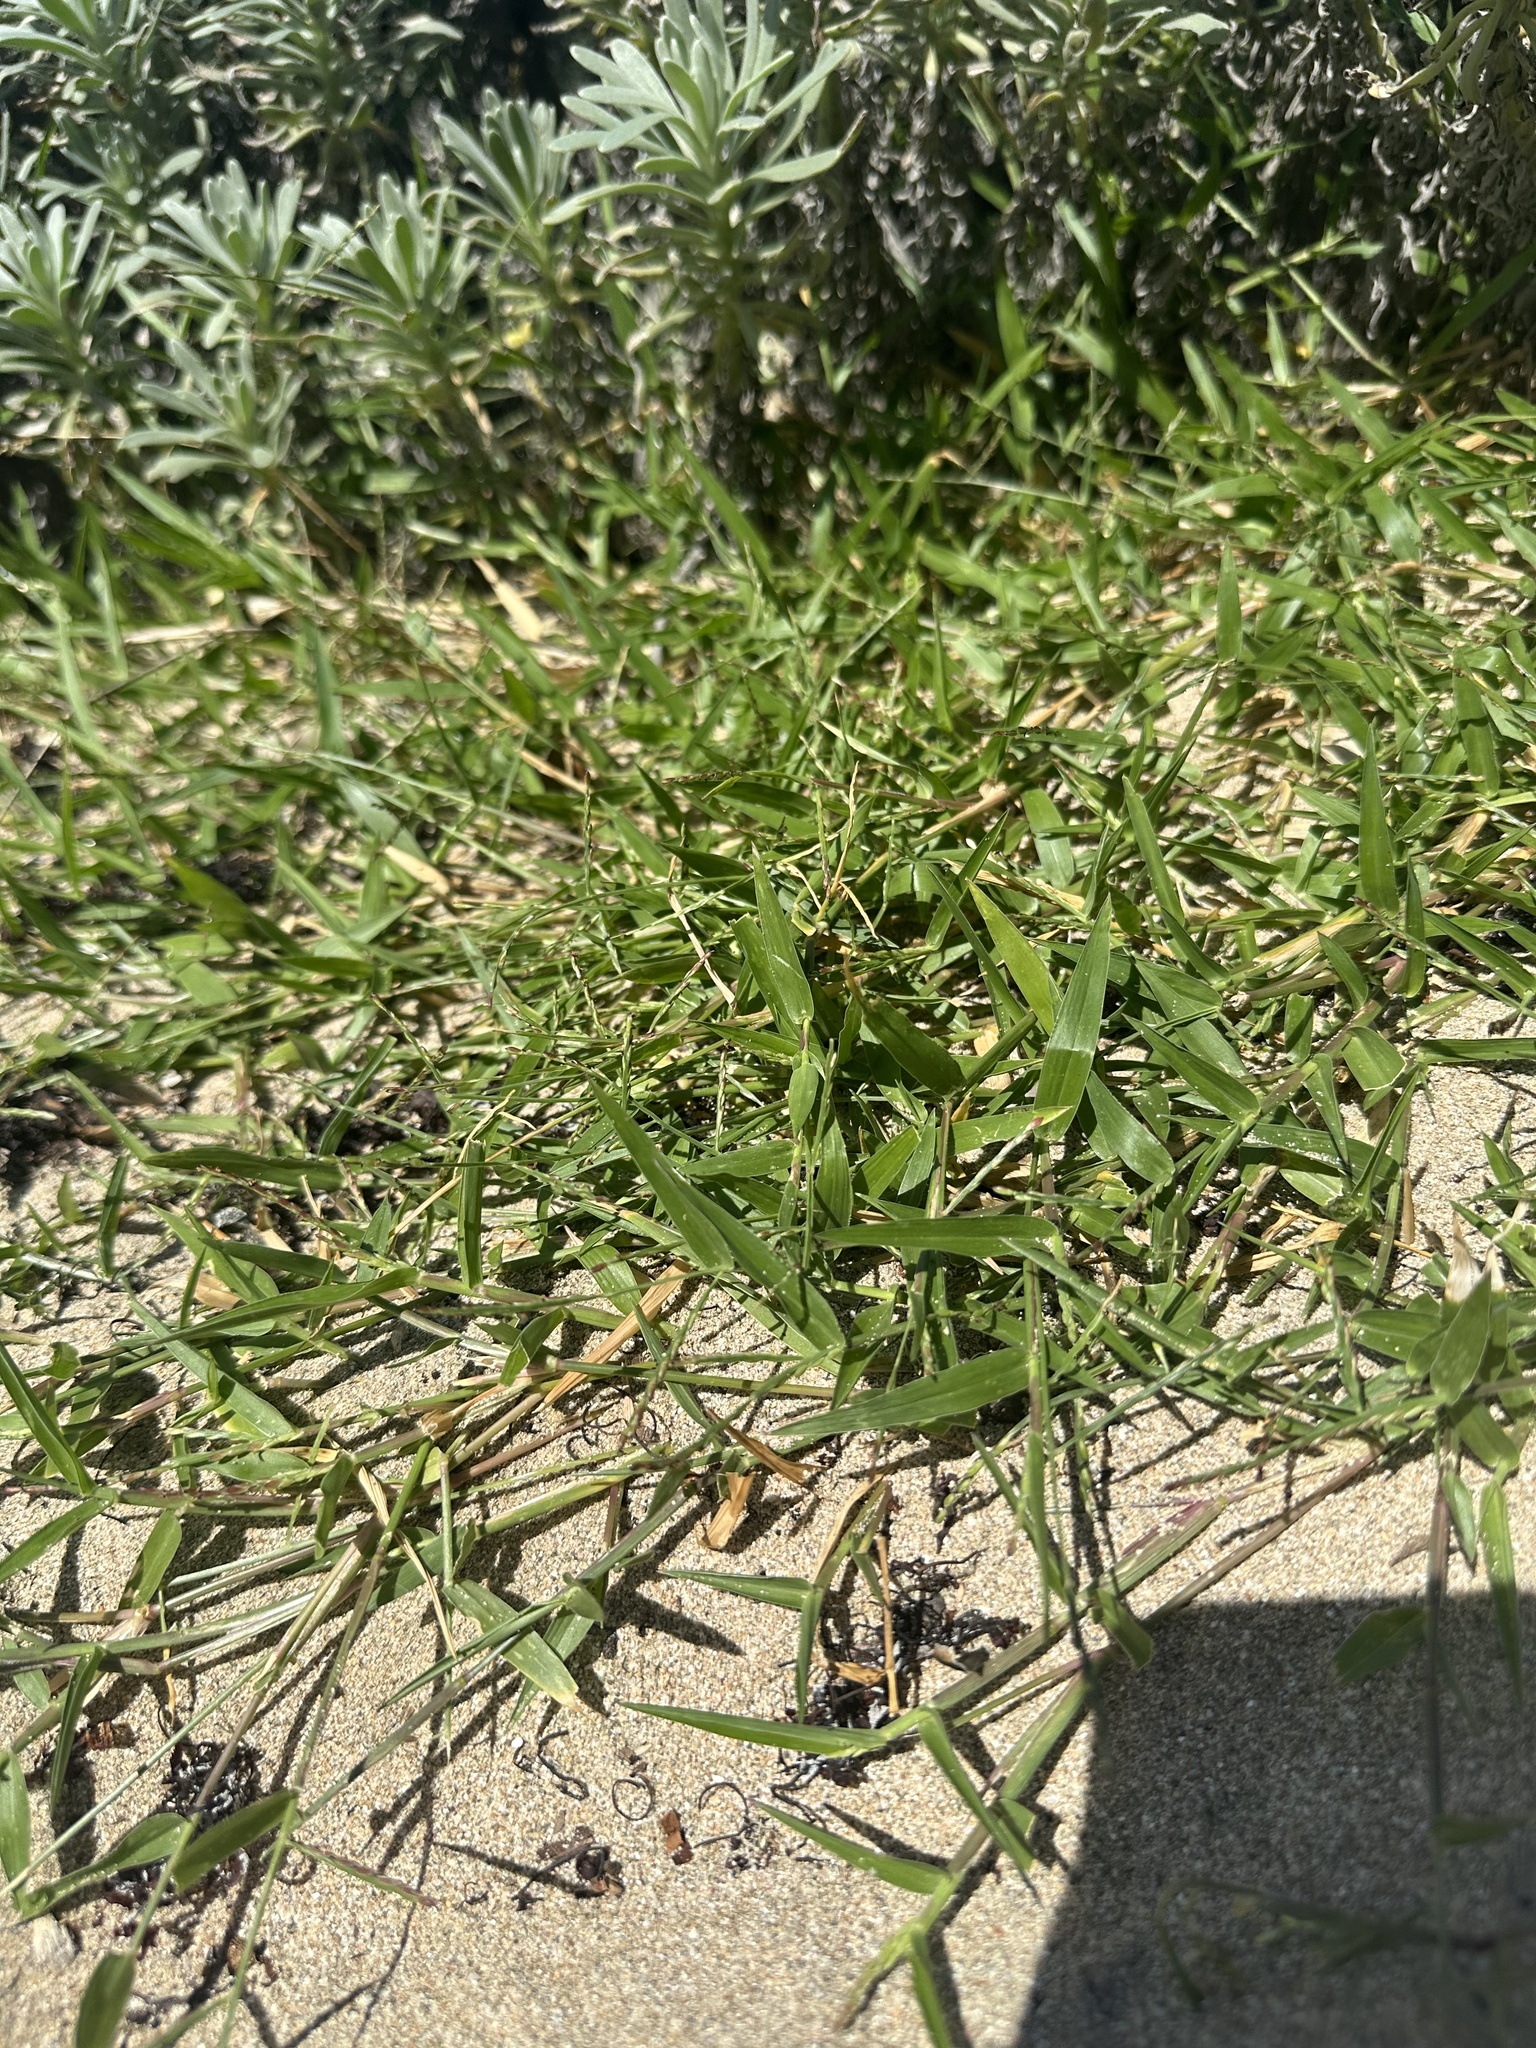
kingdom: Plantae
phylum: Tracheophyta
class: Liliopsida
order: Poales
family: Poaceae
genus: Urochloa
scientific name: Urochloa distachyos
